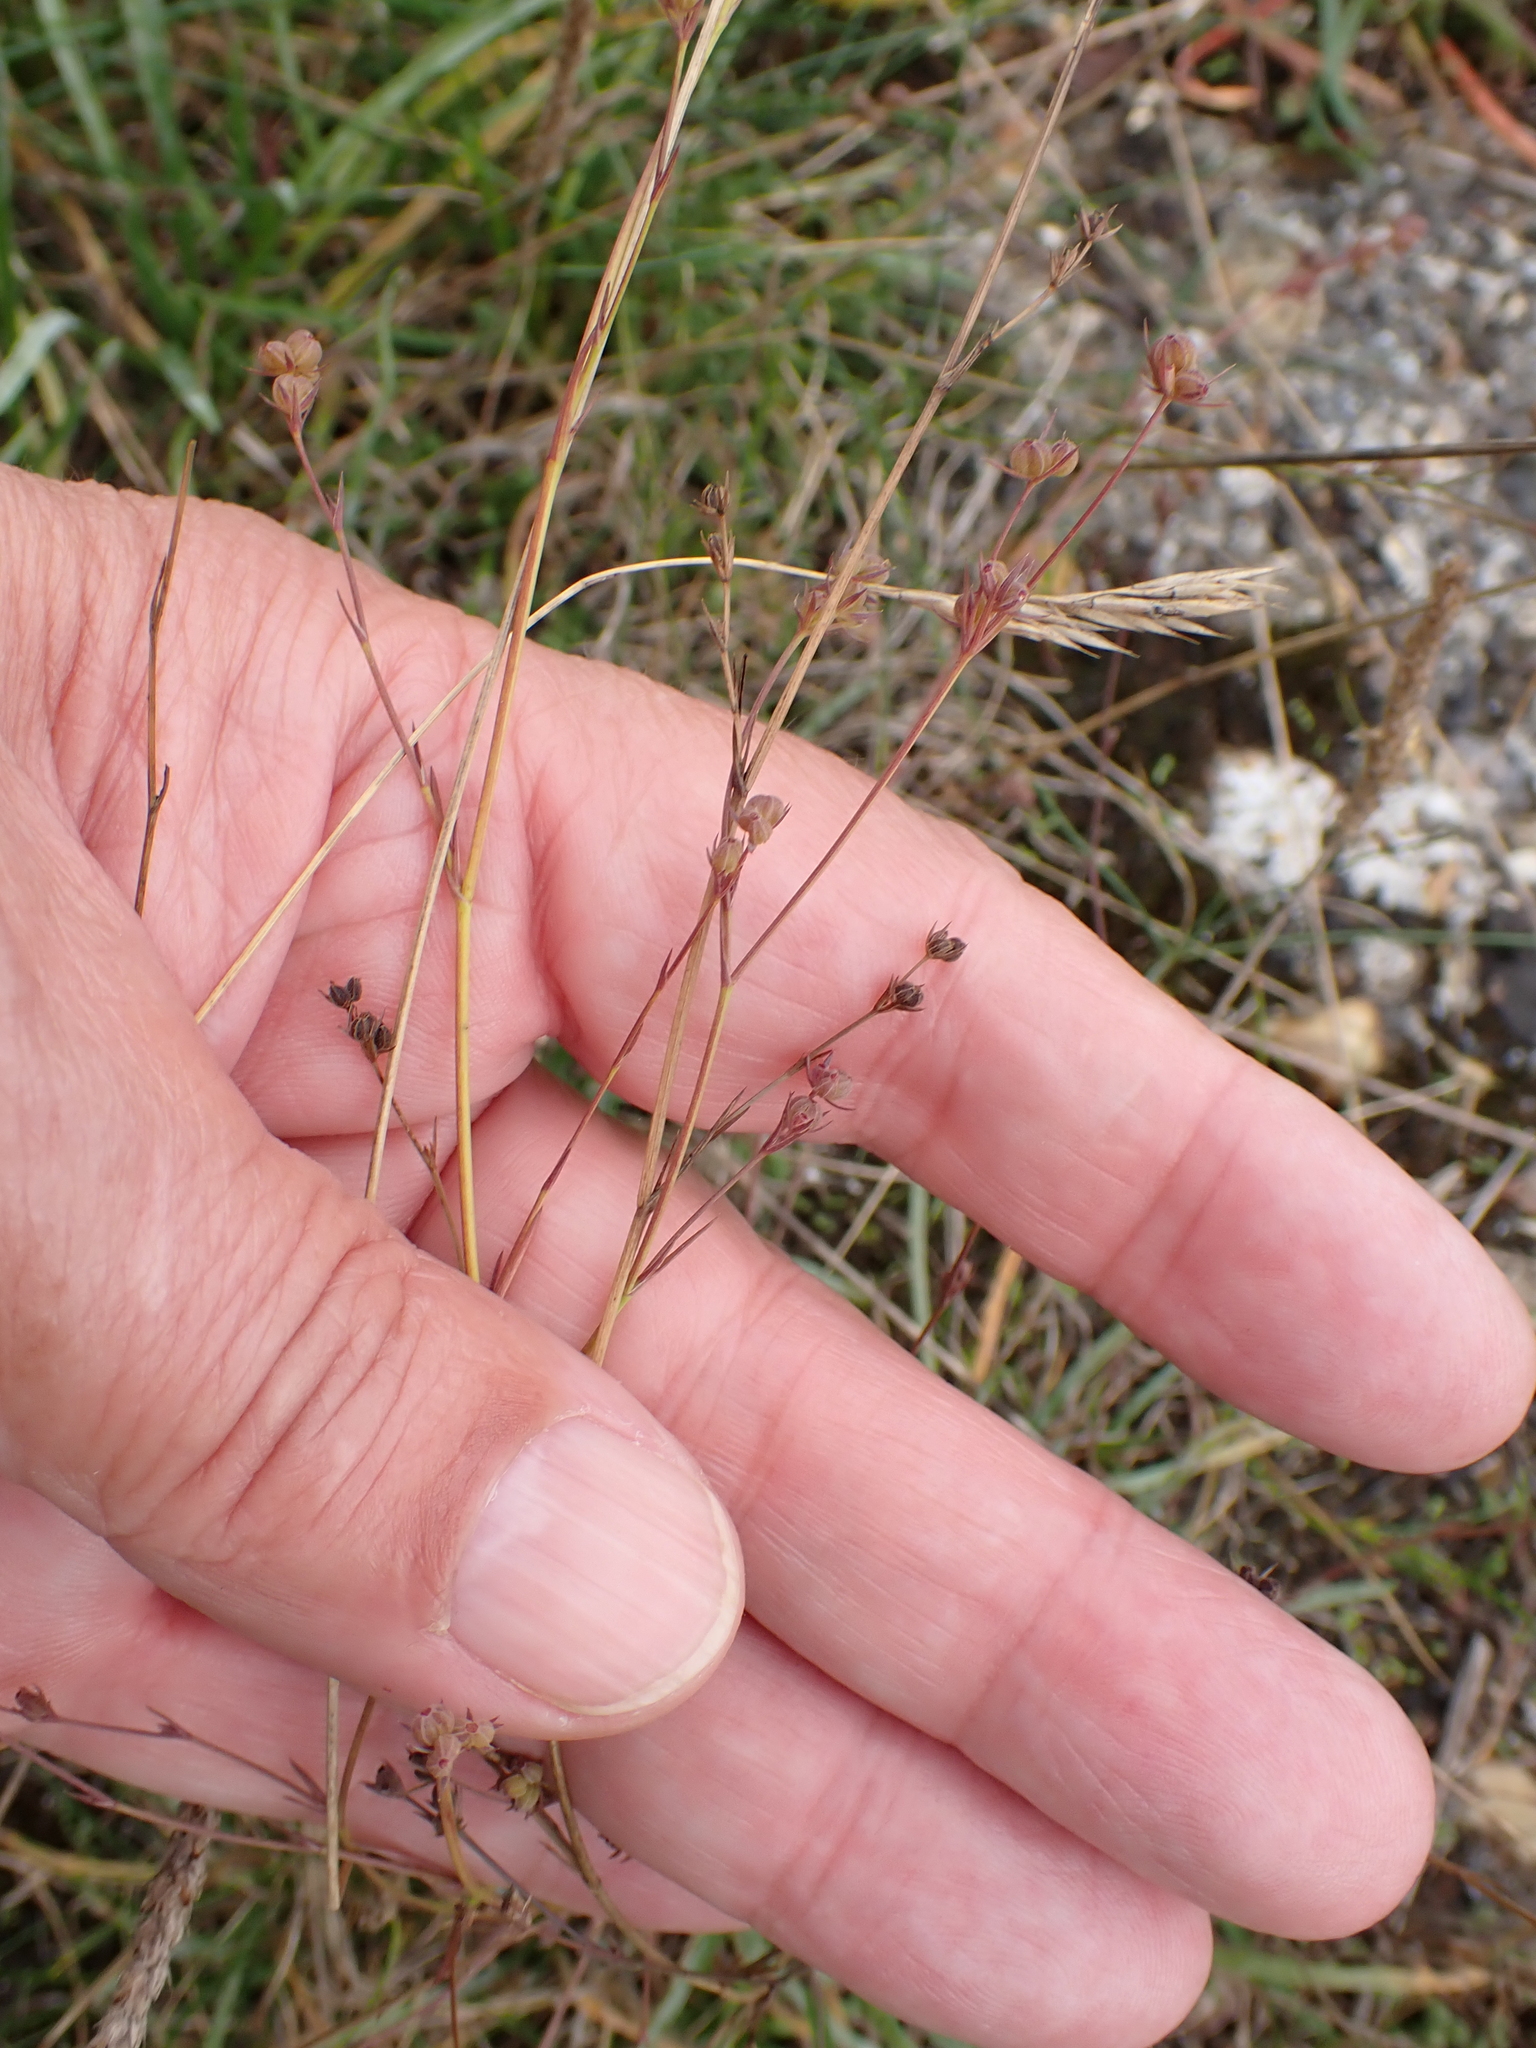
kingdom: Plantae
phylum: Tracheophyta
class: Magnoliopsida
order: Apiales
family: Apiaceae
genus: Bupleurum
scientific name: Bupleurum tenuissimum
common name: Slender hare's-ear
